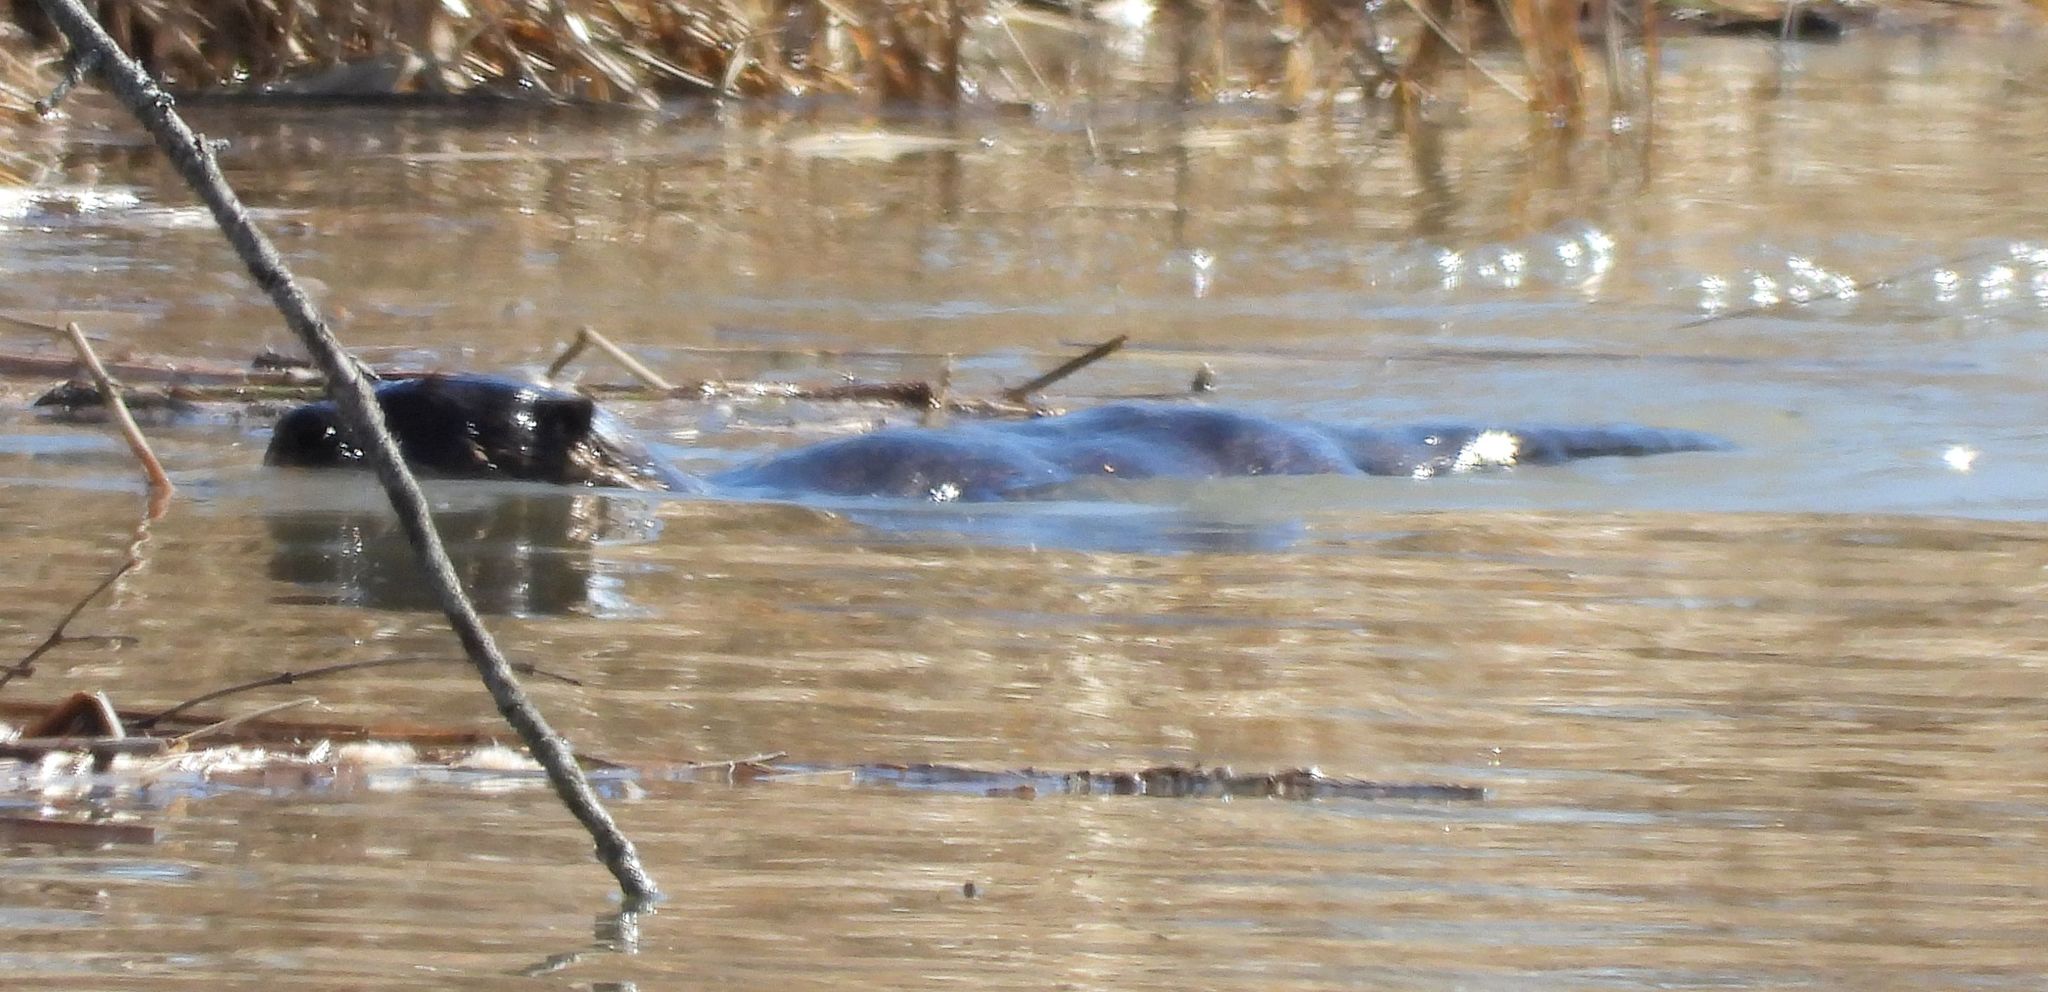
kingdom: Animalia
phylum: Chordata
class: Mammalia
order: Rodentia
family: Castoridae
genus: Castor
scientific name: Castor canadensis
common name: American beaver
